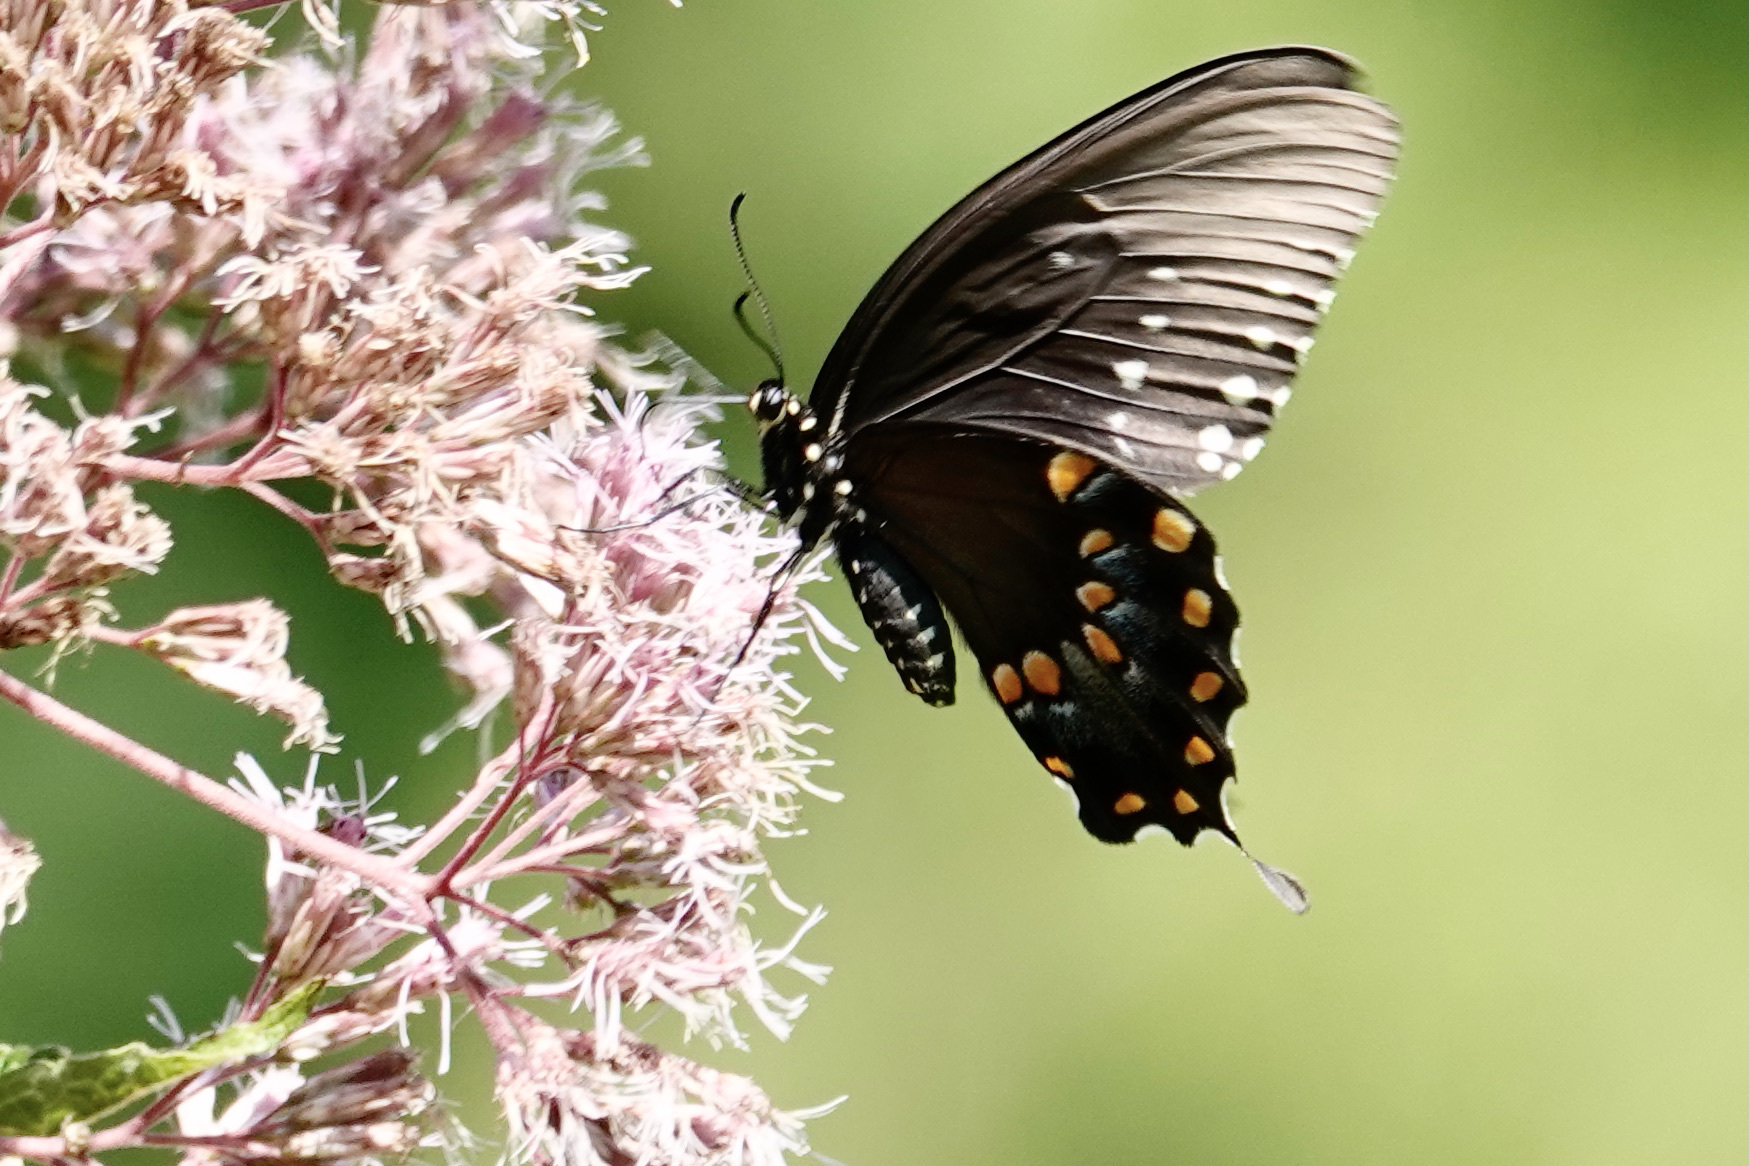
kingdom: Animalia
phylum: Arthropoda
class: Insecta
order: Lepidoptera
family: Papilionidae
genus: Papilio
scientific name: Papilio troilus
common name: Spicebush swallowtail
